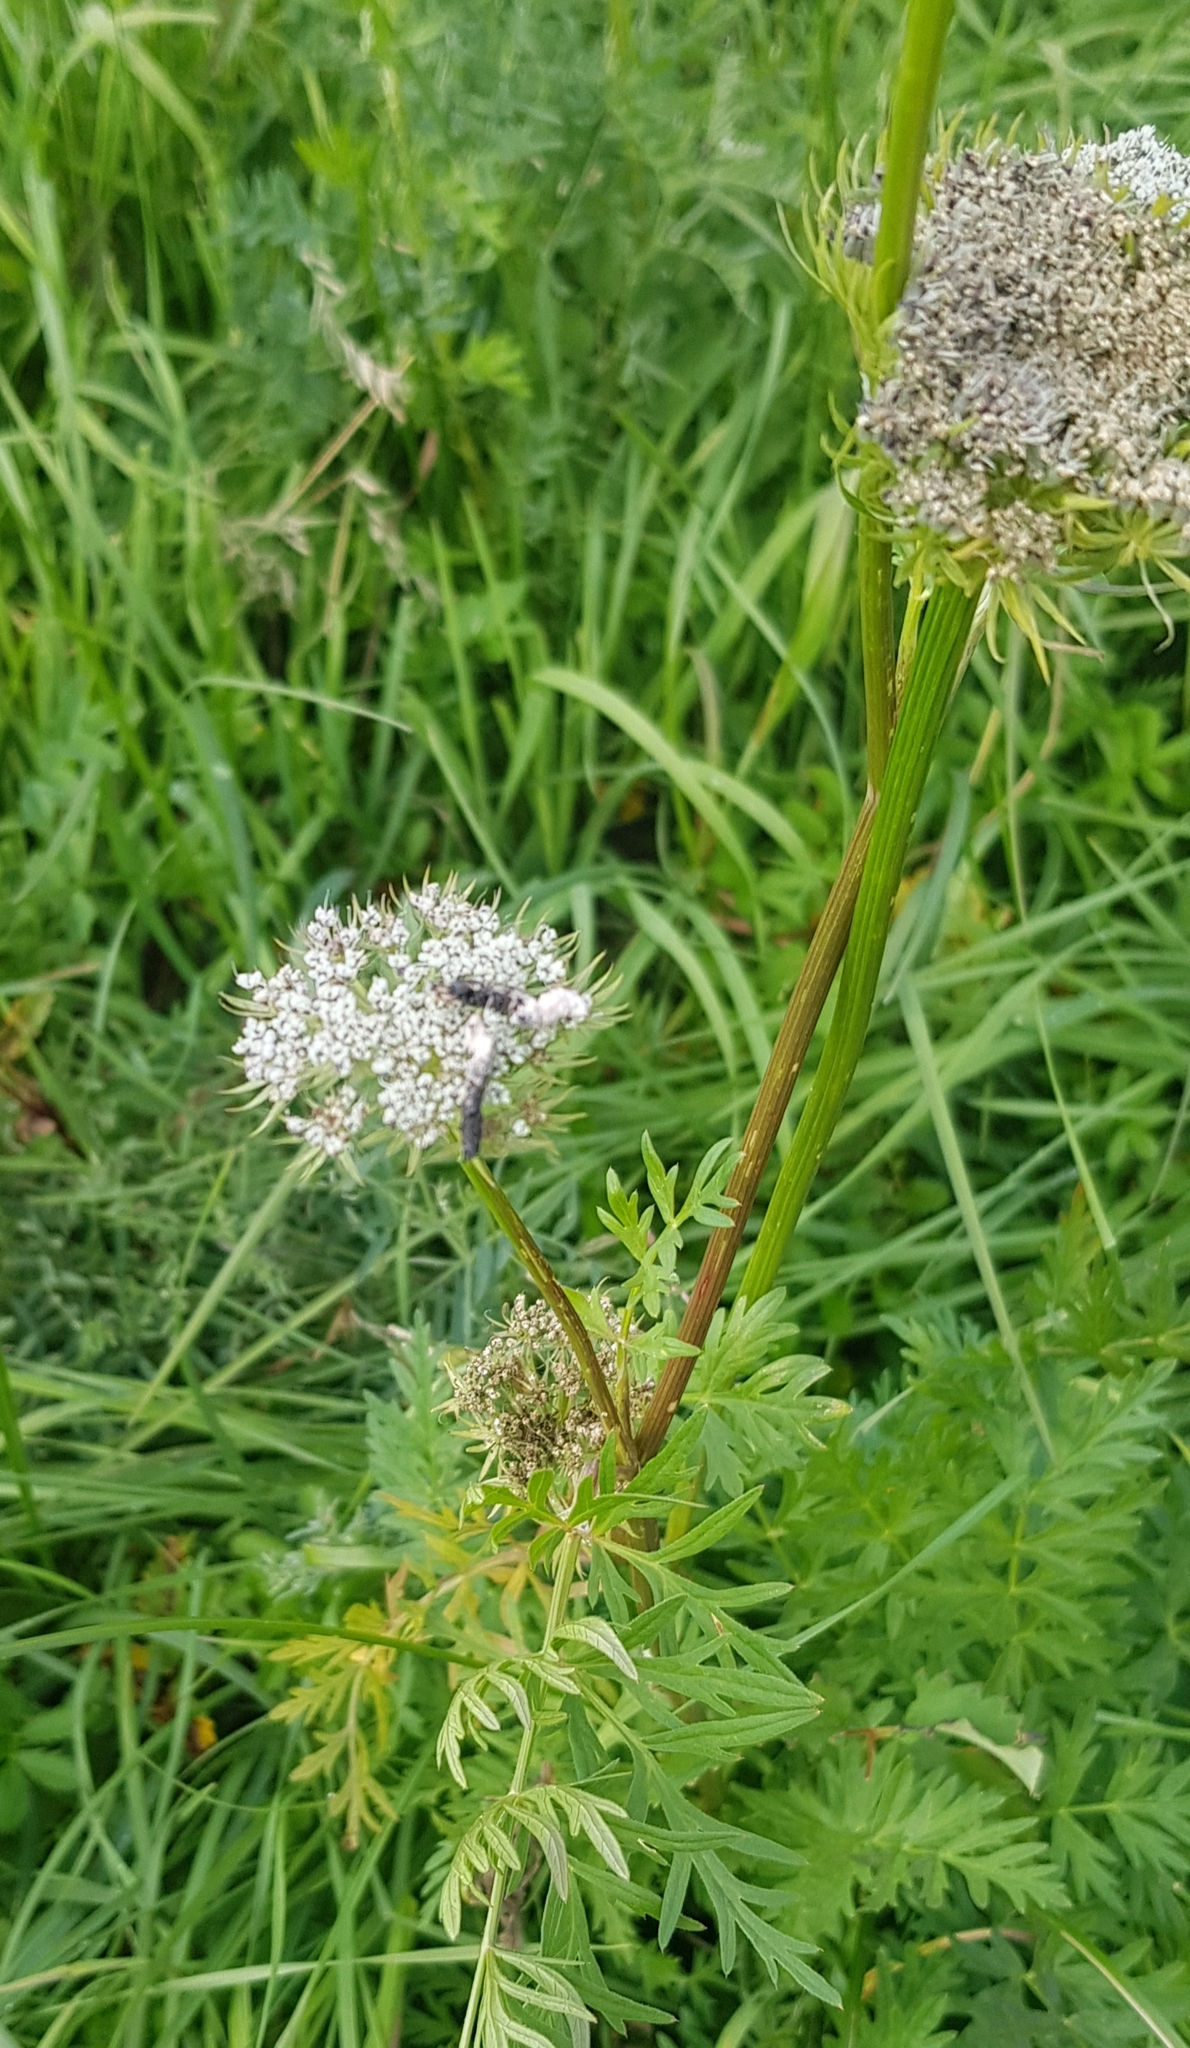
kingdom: Plantae
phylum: Tracheophyta
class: Magnoliopsida
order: Apiales
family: Apiaceae
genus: Seseli
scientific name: Seseli seseloides
